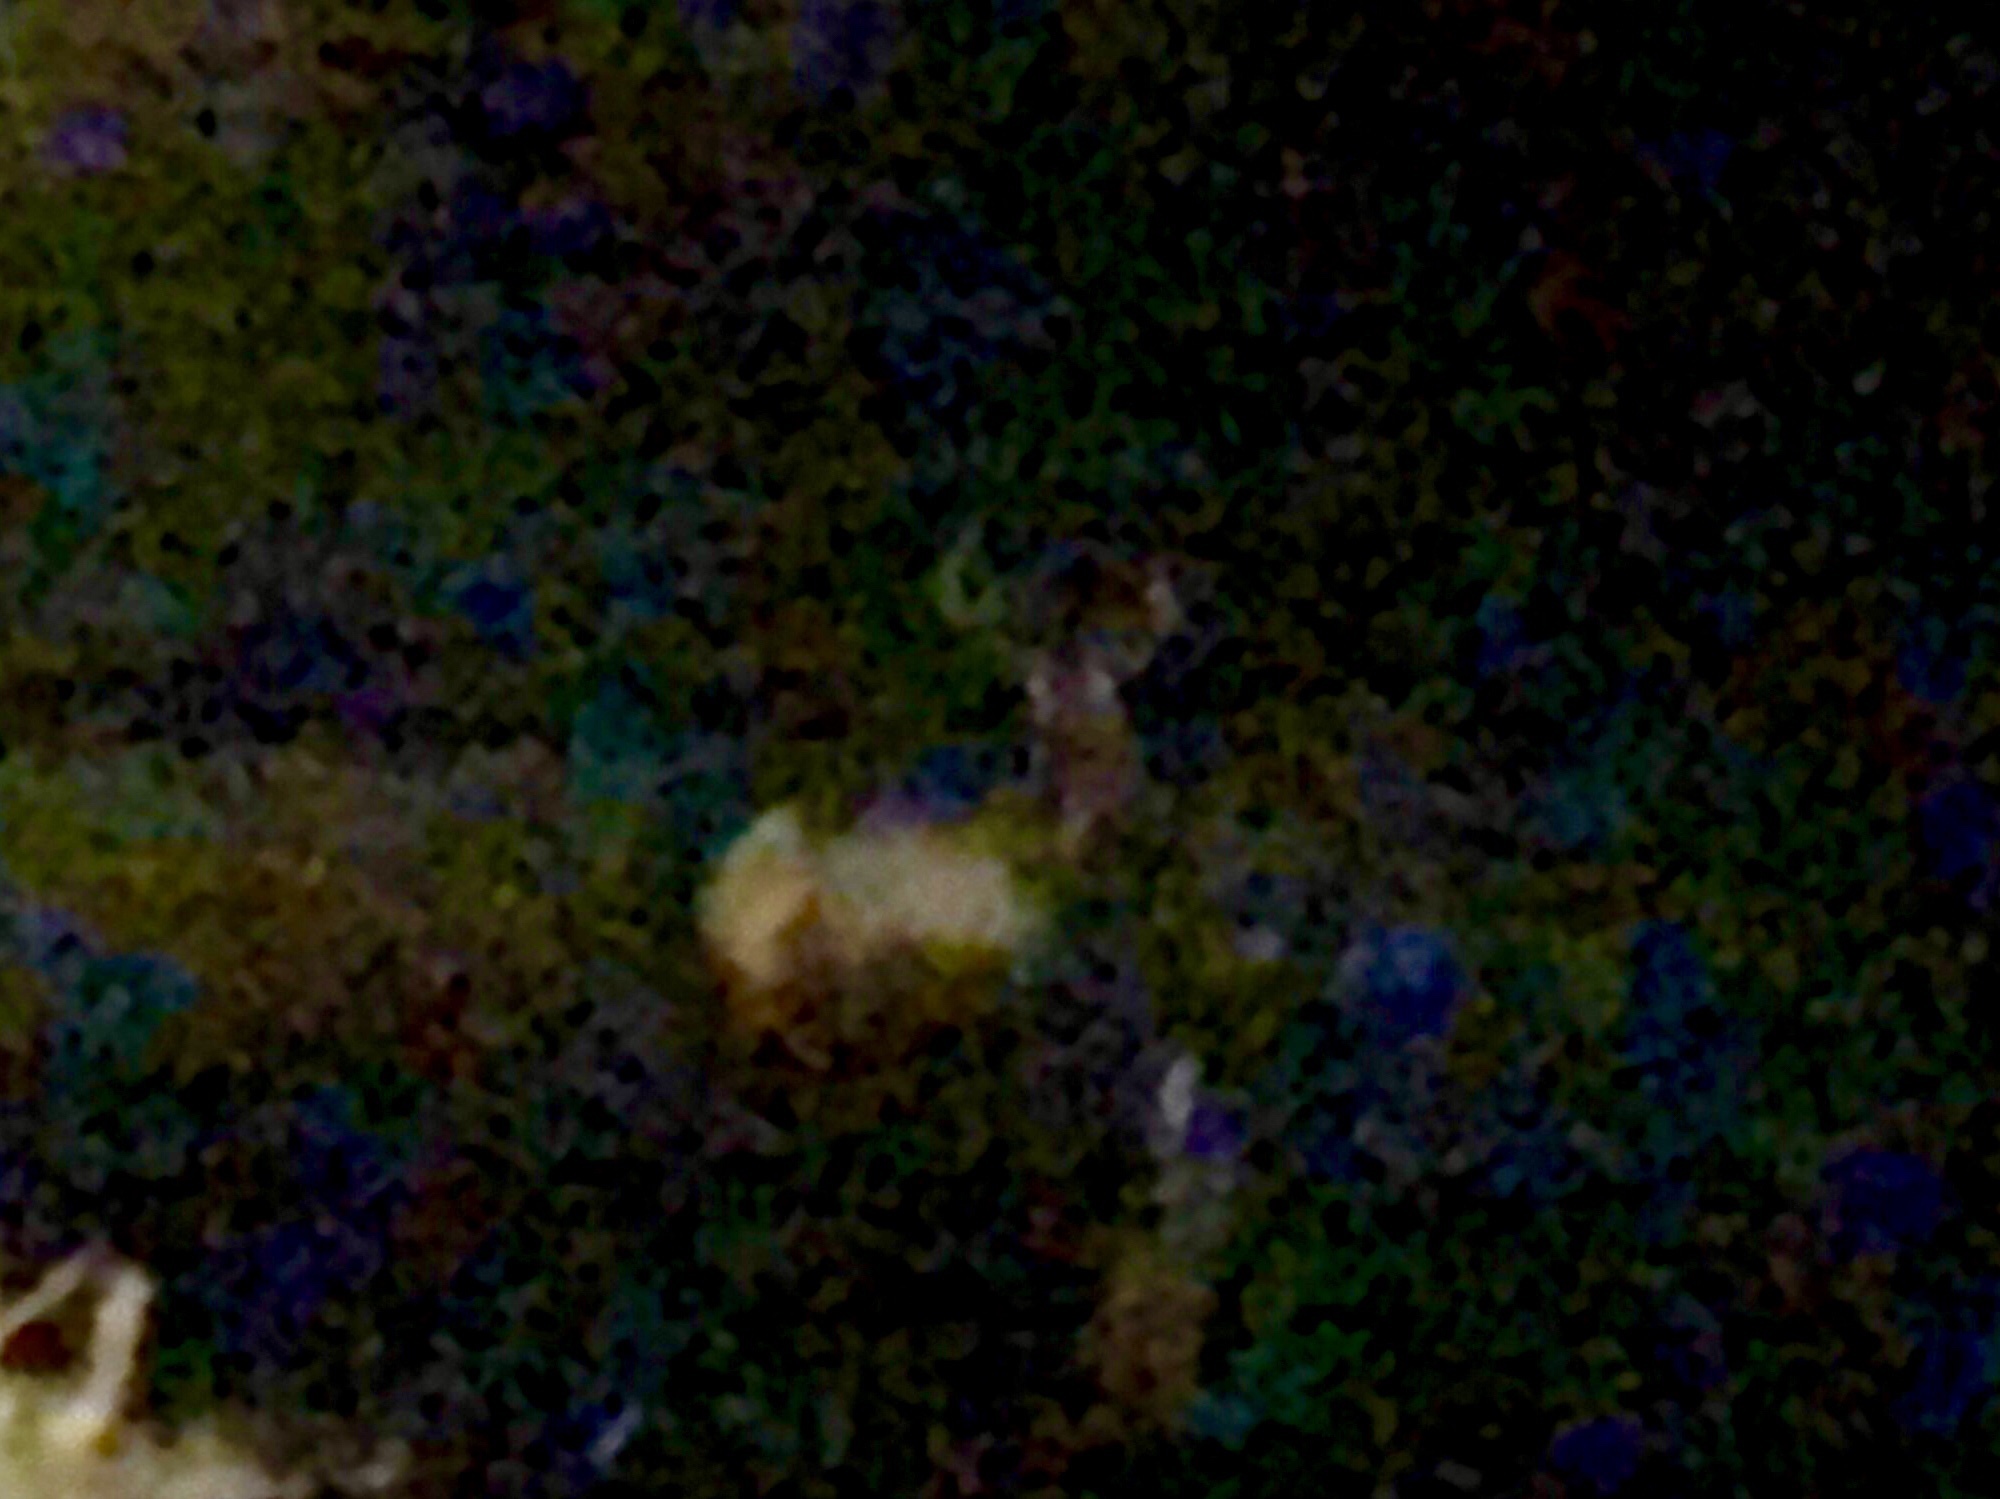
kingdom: Animalia
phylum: Chordata
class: Mammalia
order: Artiodactyla
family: Cervidae
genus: Cervus
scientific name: Cervus elaphus
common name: Red deer
